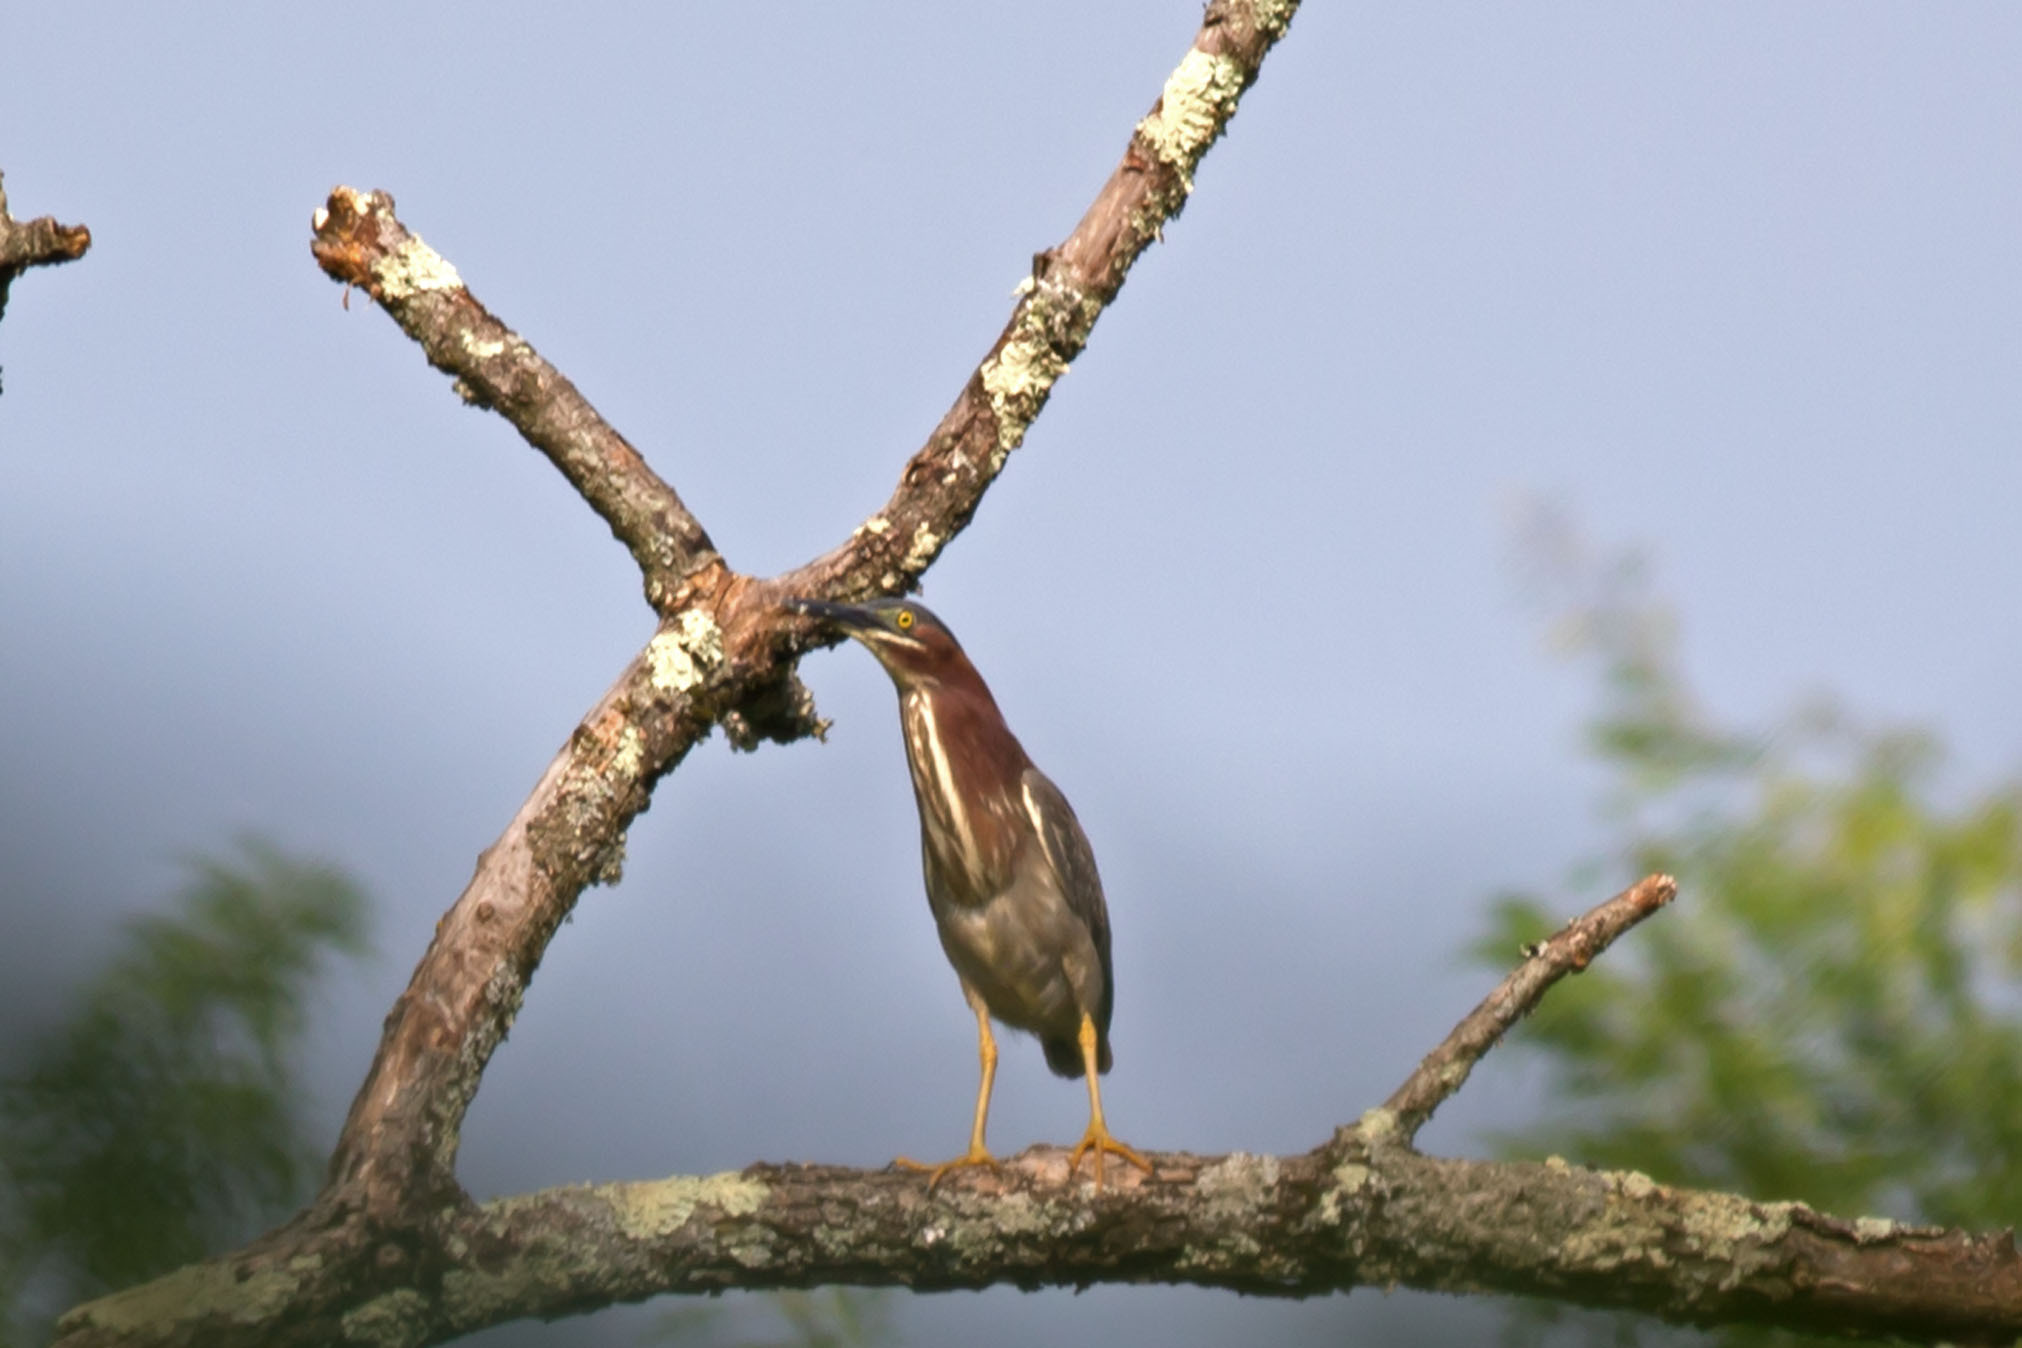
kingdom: Animalia
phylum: Chordata
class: Aves
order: Pelecaniformes
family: Ardeidae
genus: Butorides
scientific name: Butorides virescens
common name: Green heron
